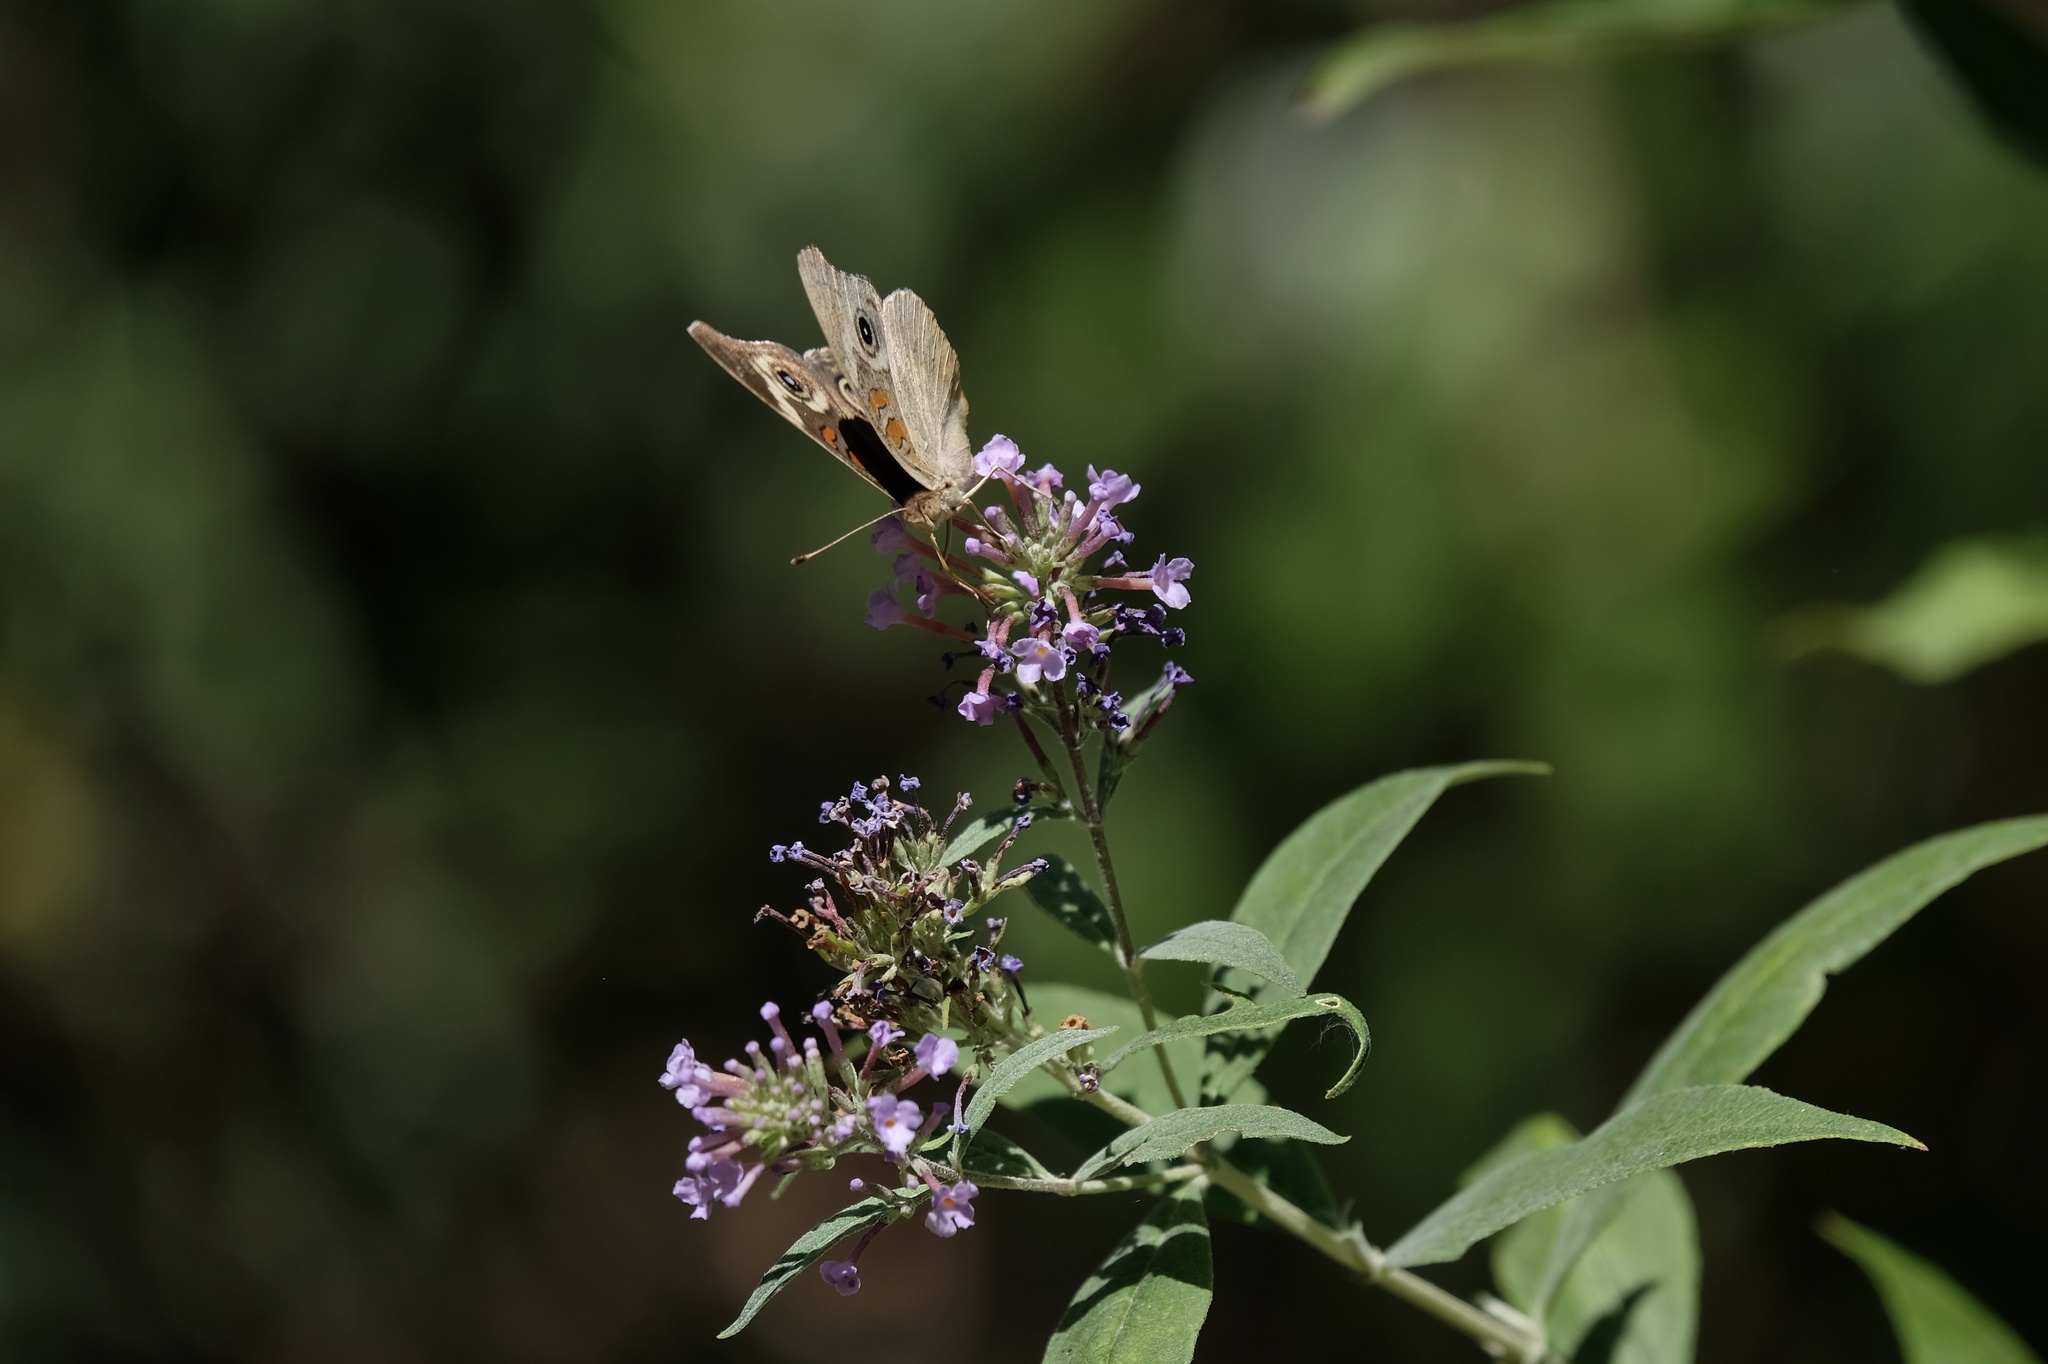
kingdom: Animalia
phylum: Arthropoda
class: Insecta
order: Lepidoptera
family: Nymphalidae
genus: Junonia
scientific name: Junonia grisea
